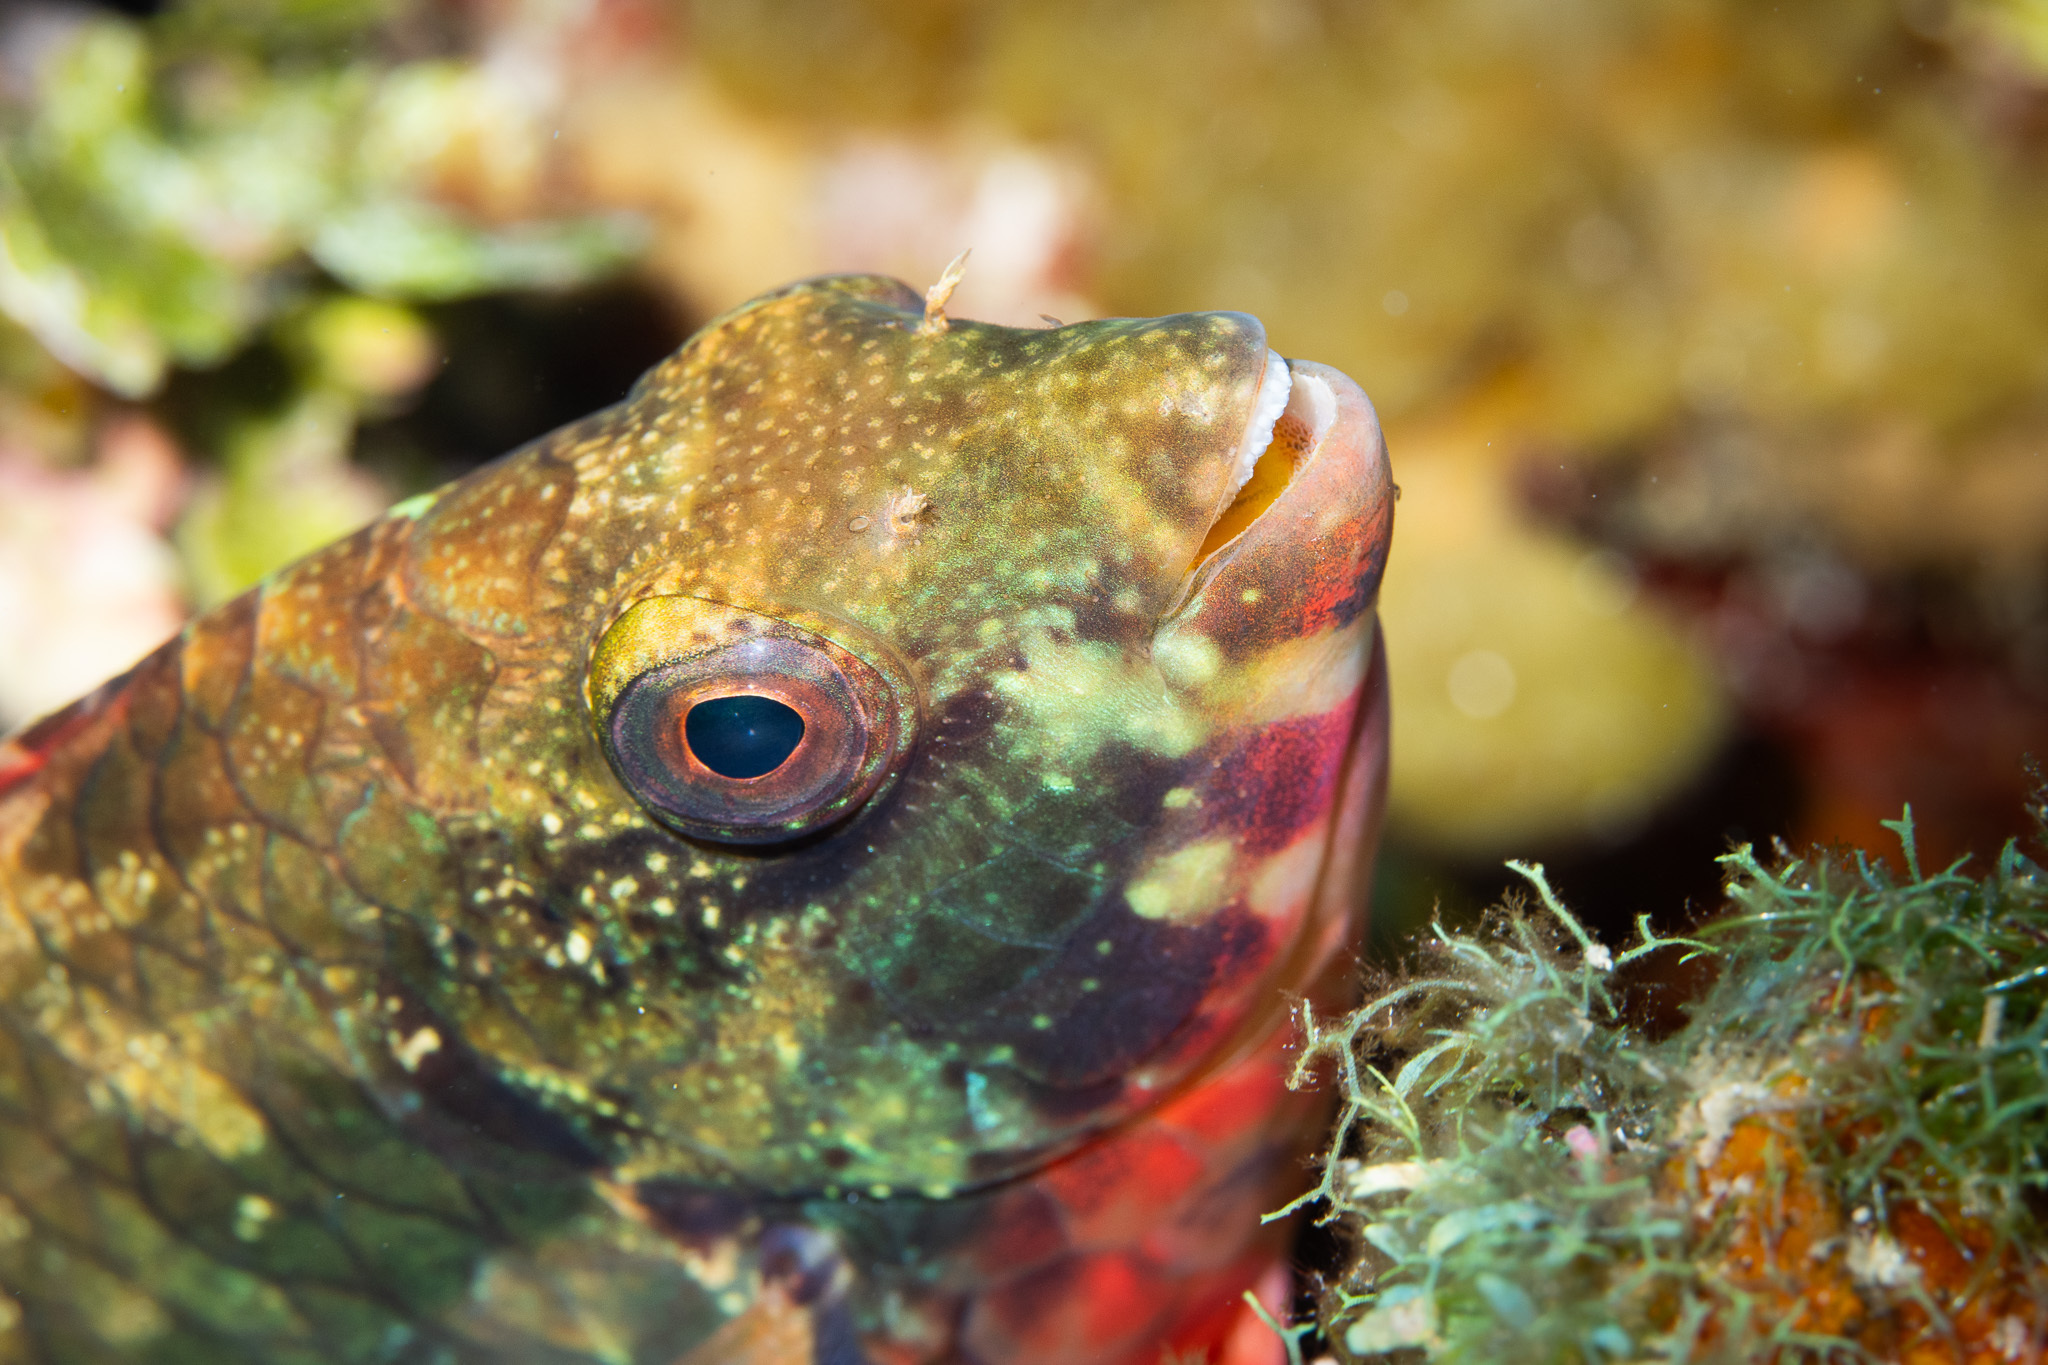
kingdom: Animalia
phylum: Chordata
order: Perciformes
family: Scaridae
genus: Sparisoma
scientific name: Sparisoma aurofrenatum
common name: Redband parrotfish
